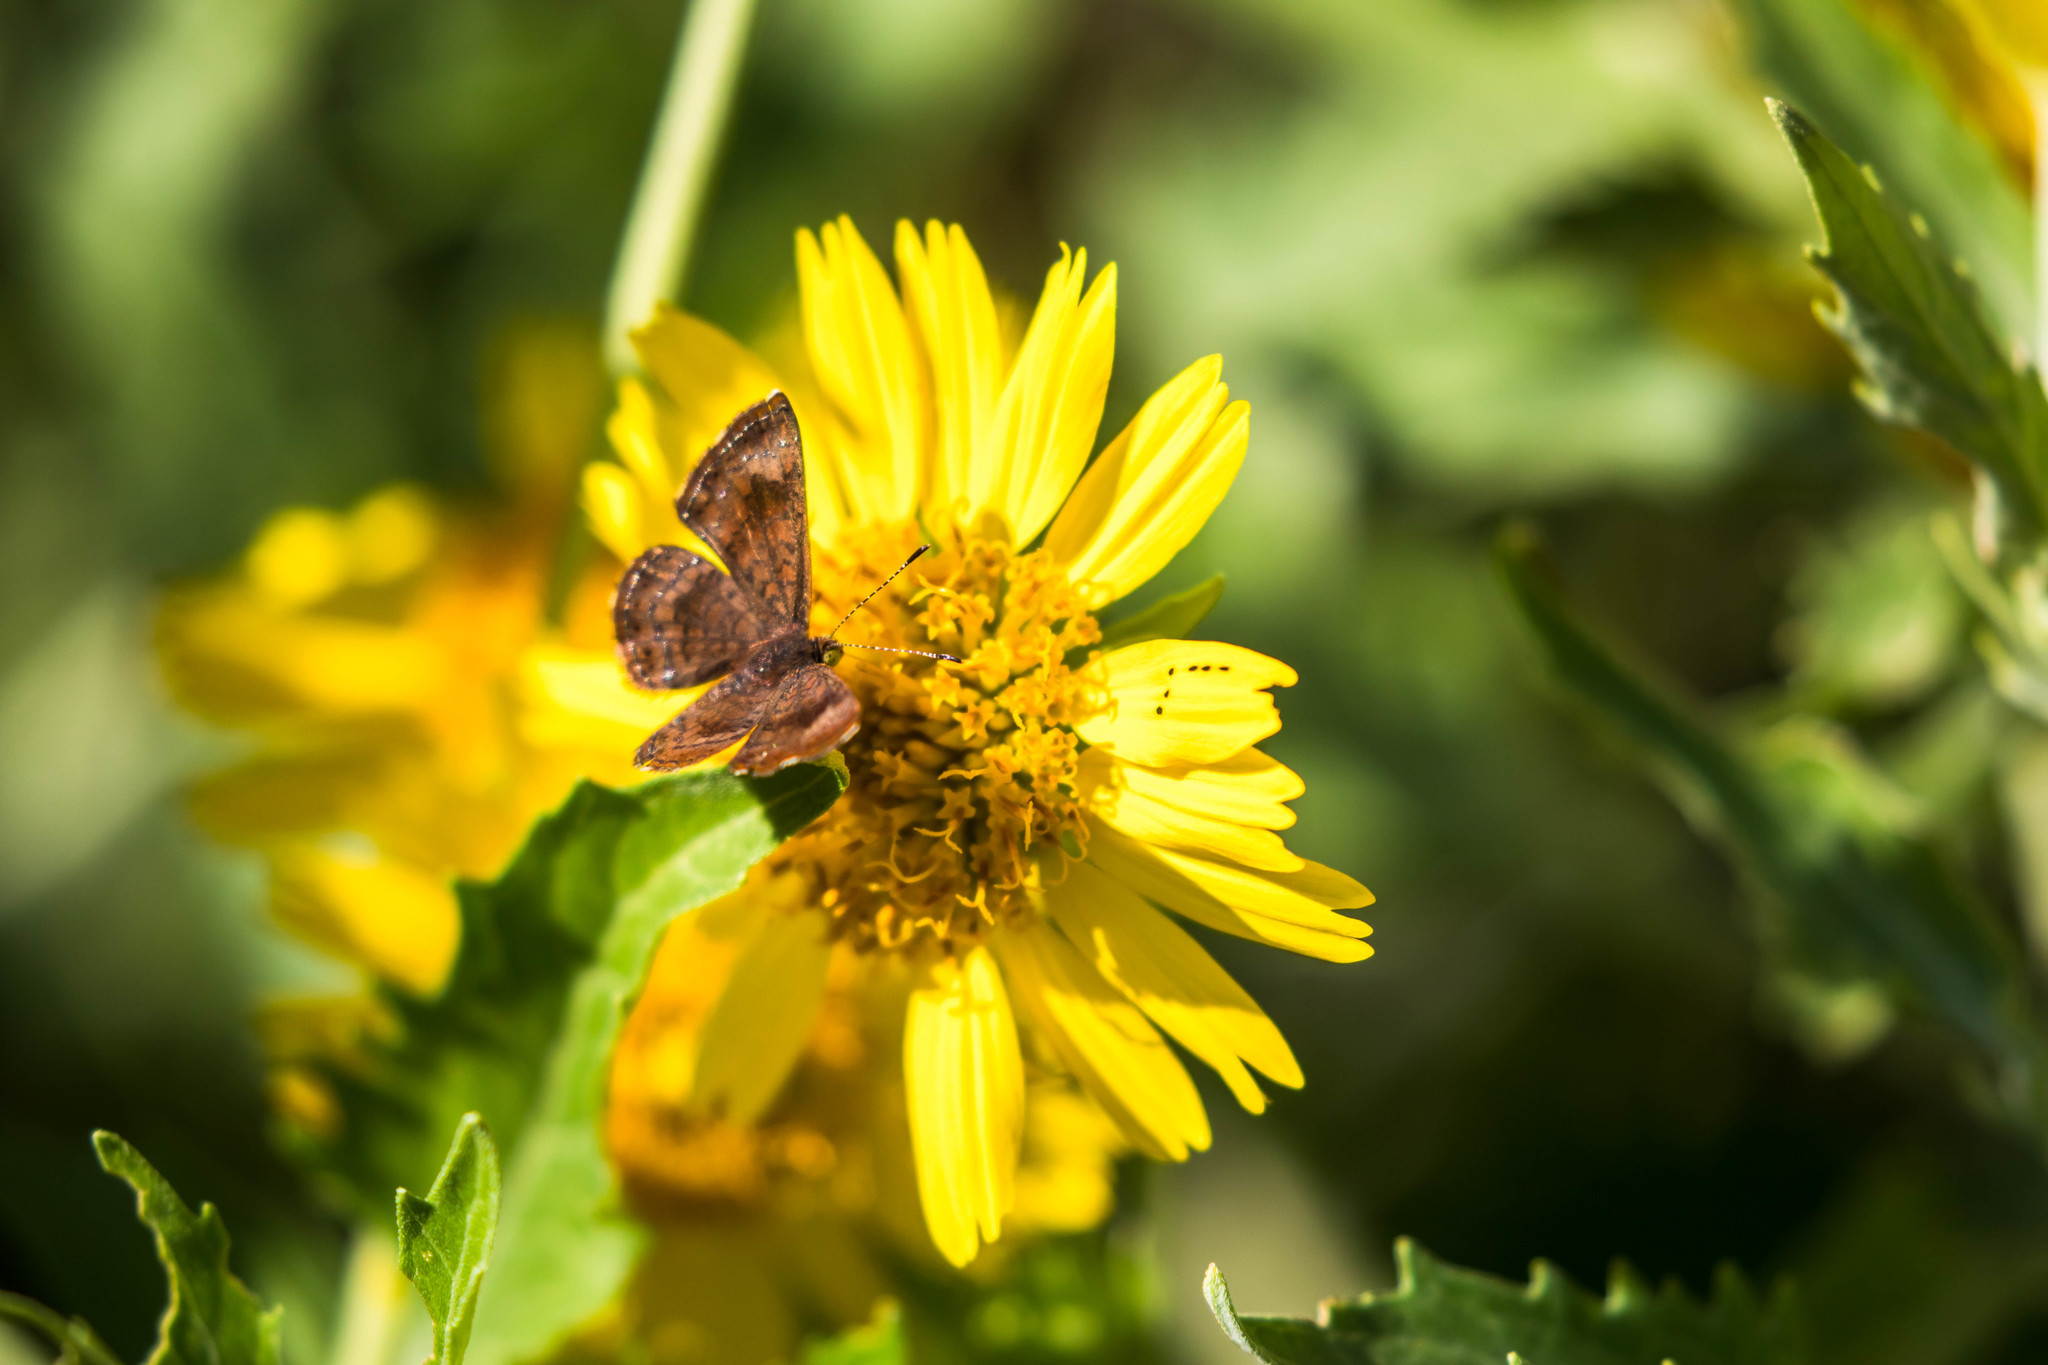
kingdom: Animalia
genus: Calephelis
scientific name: Calephelis nemesis
